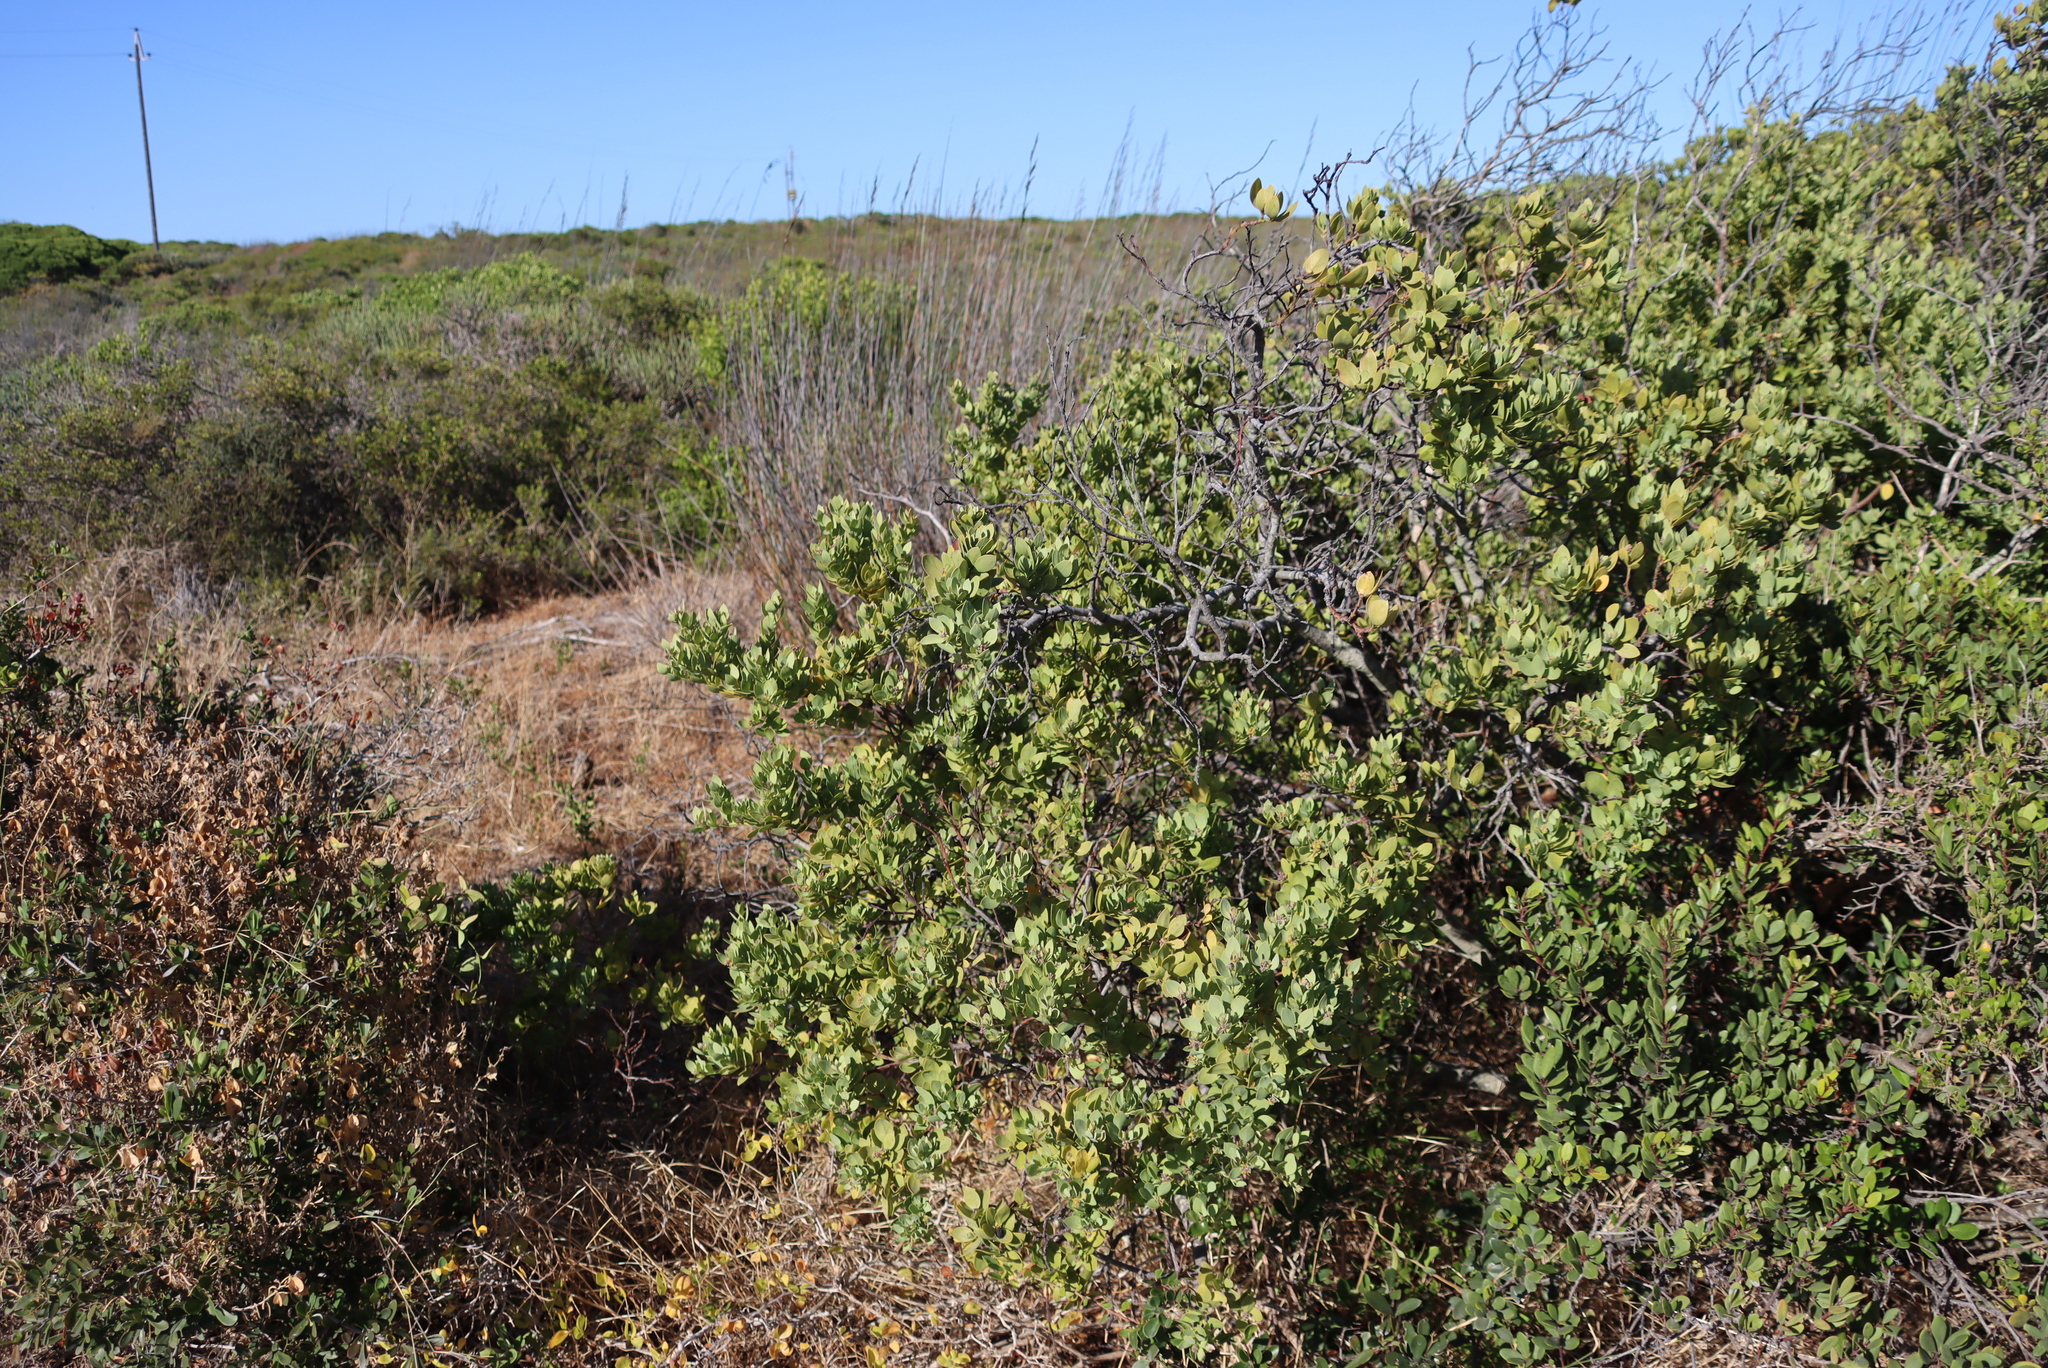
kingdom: Plantae
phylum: Tracheophyta
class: Magnoliopsida
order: Santalales
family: Santalaceae
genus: Osyris
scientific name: Osyris compressa
